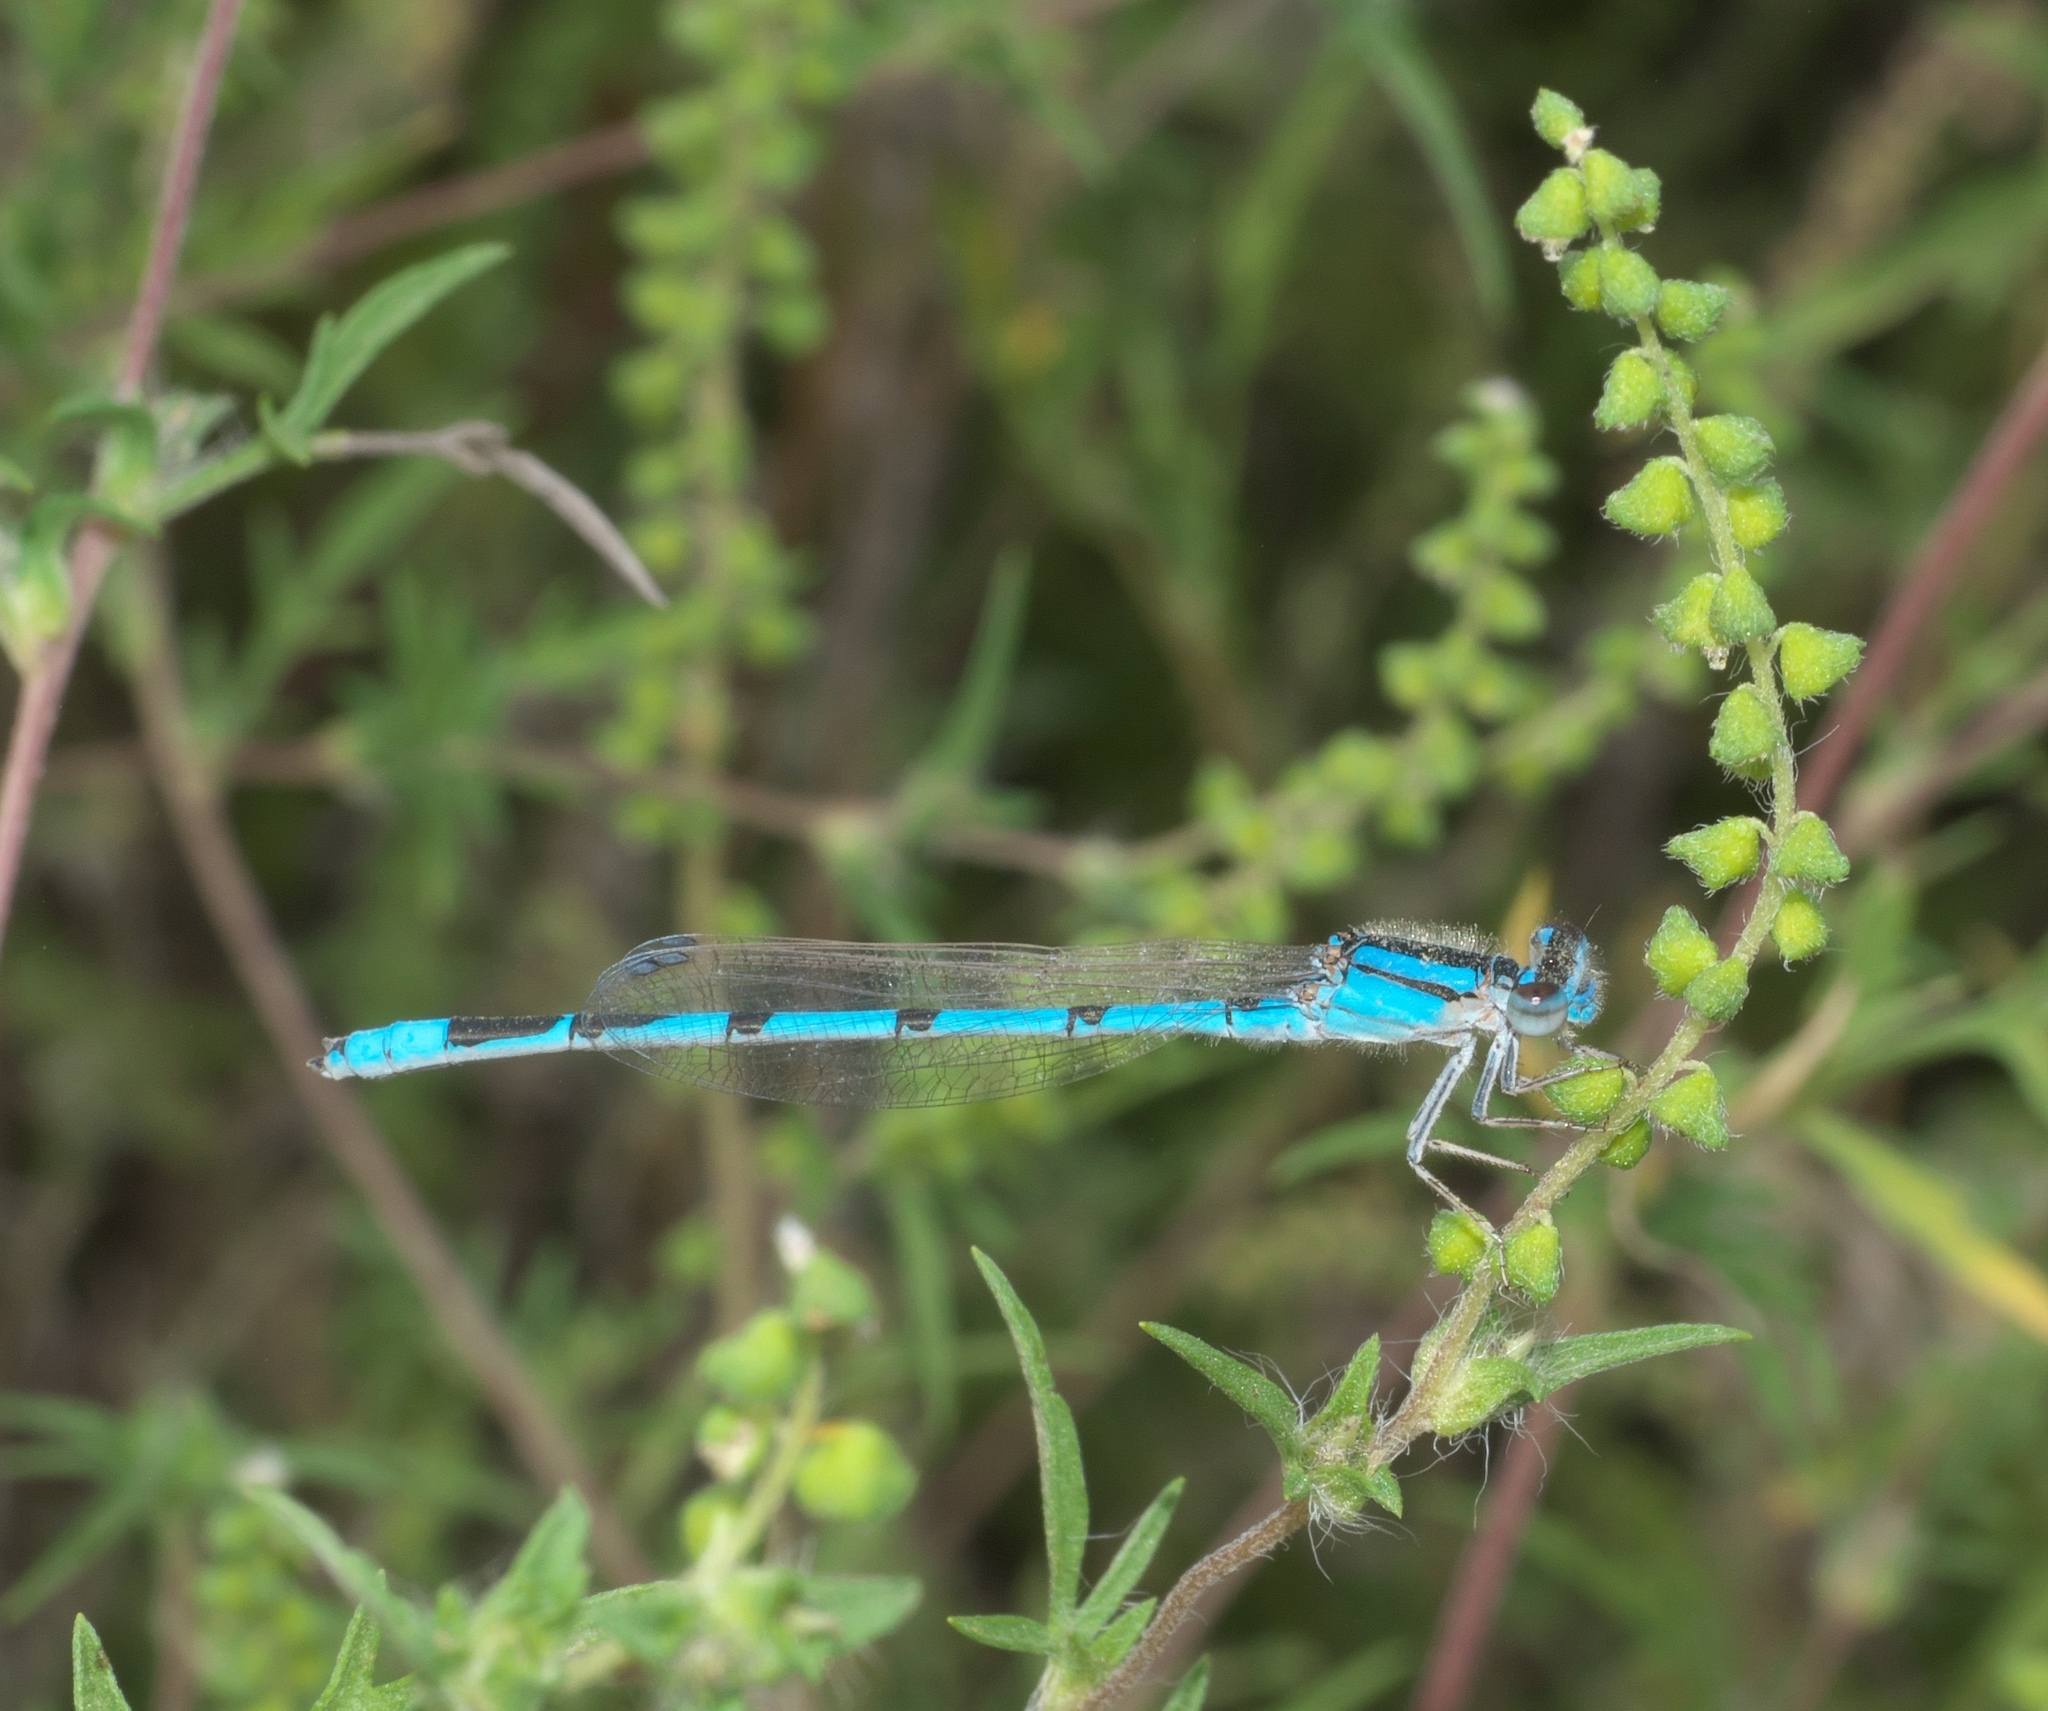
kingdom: Animalia
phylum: Arthropoda
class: Insecta
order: Odonata
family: Coenagrionidae
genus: Enallagma
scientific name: Enallagma civile
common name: Damselfly
